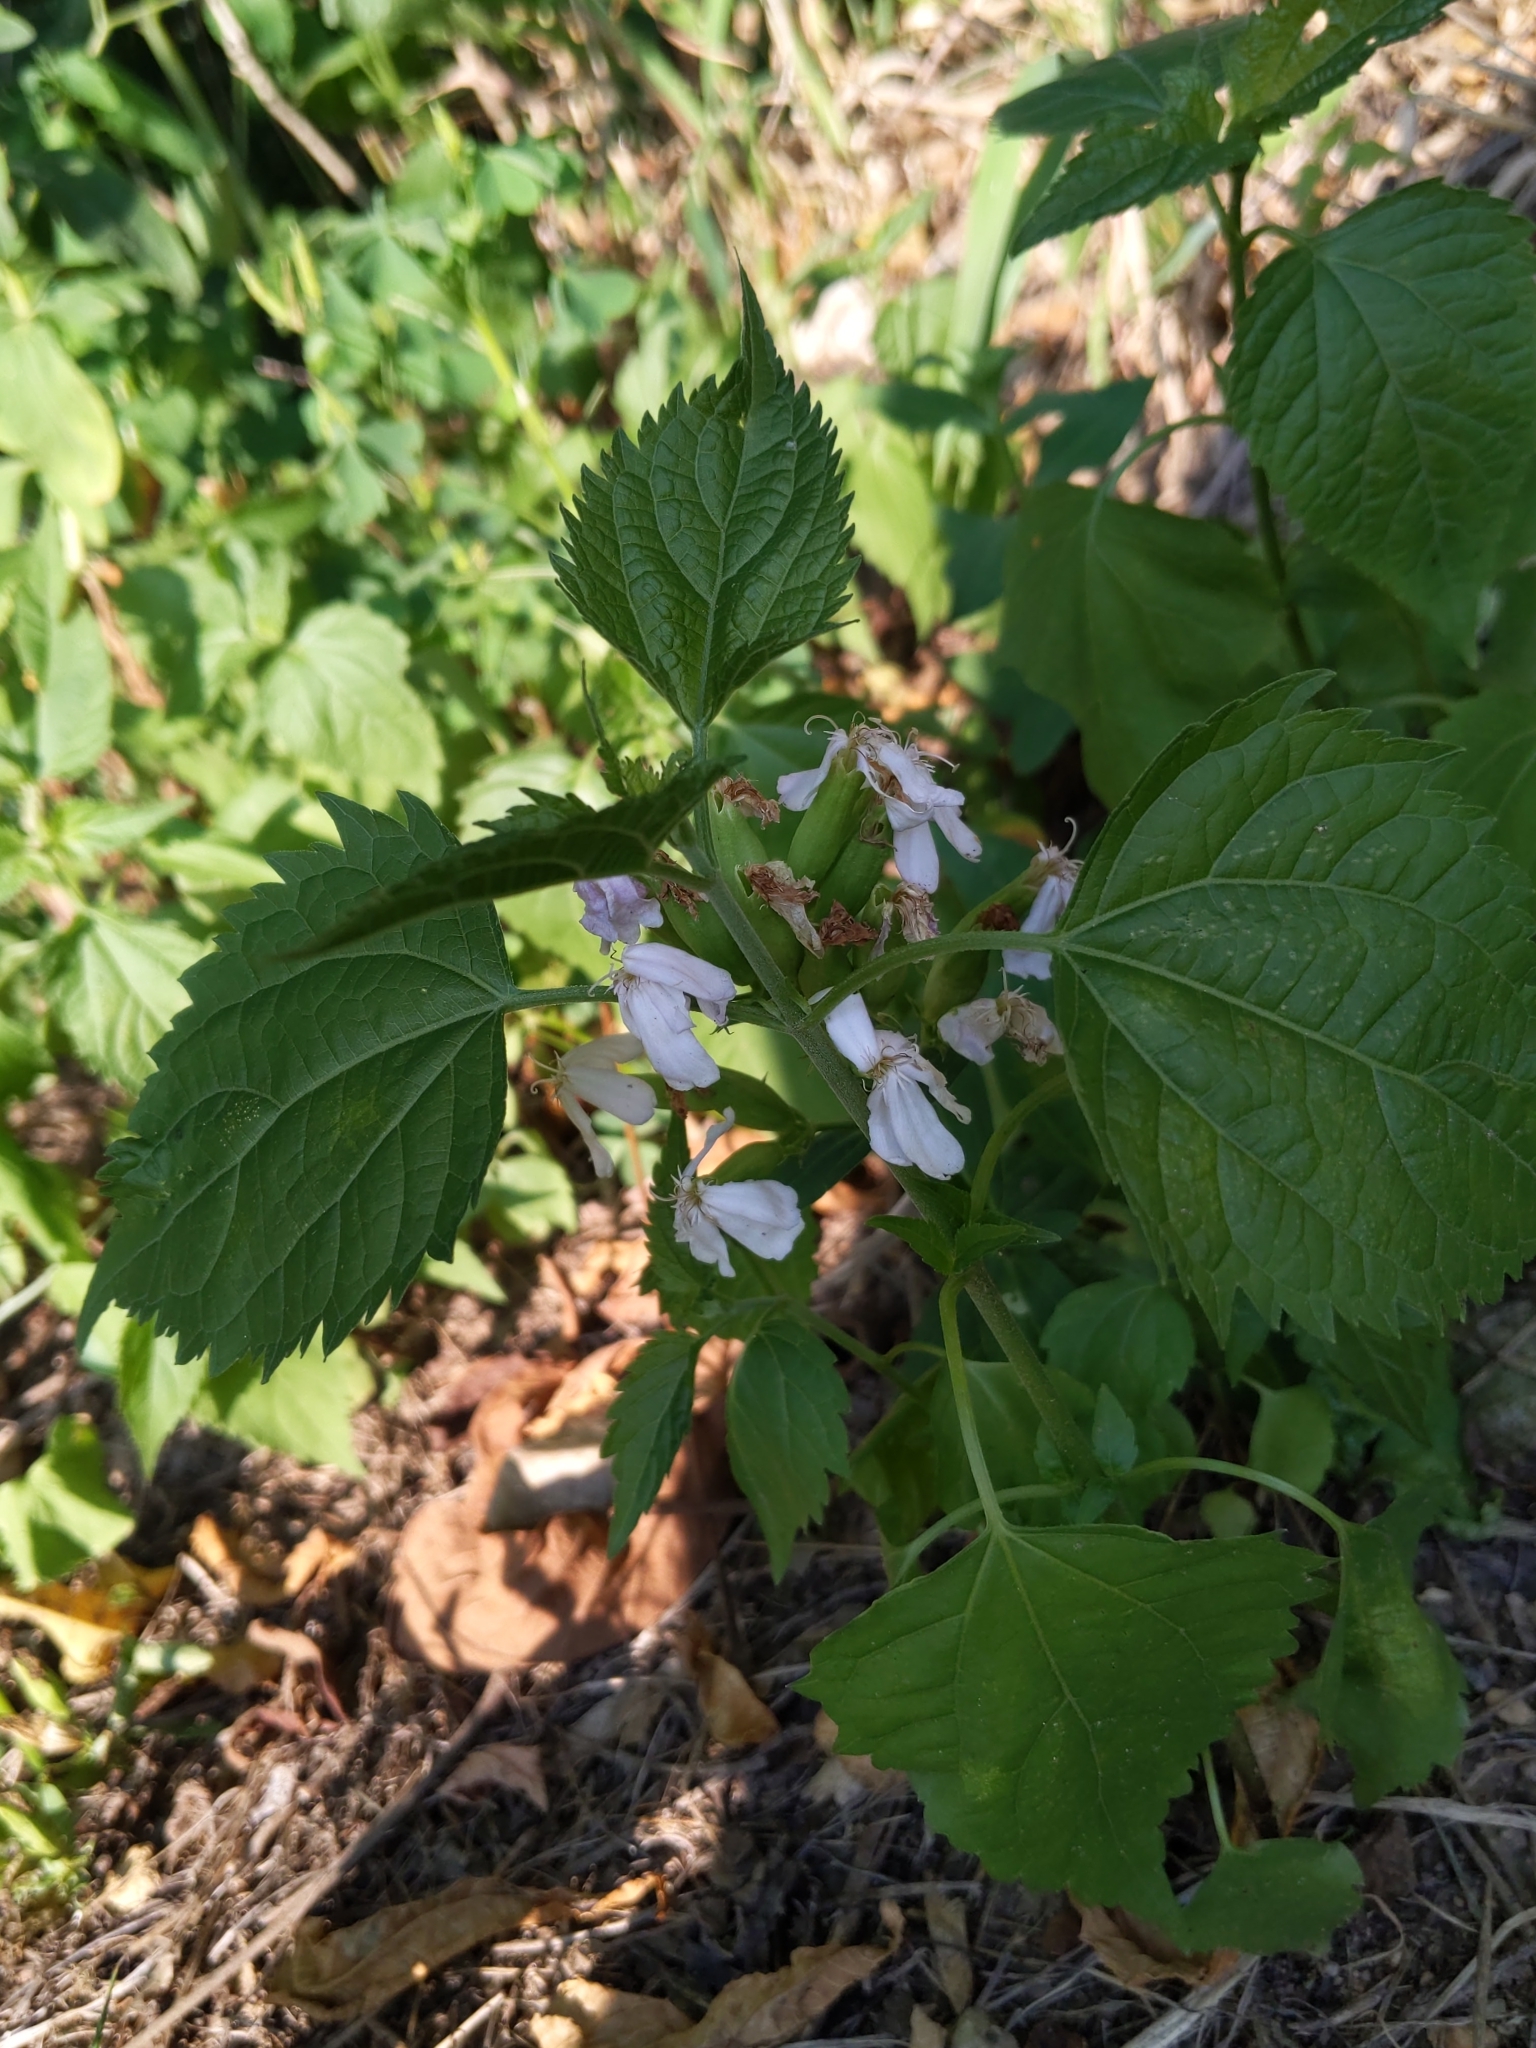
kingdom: Plantae
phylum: Tracheophyta
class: Magnoliopsida
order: Caryophyllales
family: Caryophyllaceae
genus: Saponaria
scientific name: Saponaria officinalis
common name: Soapwort
